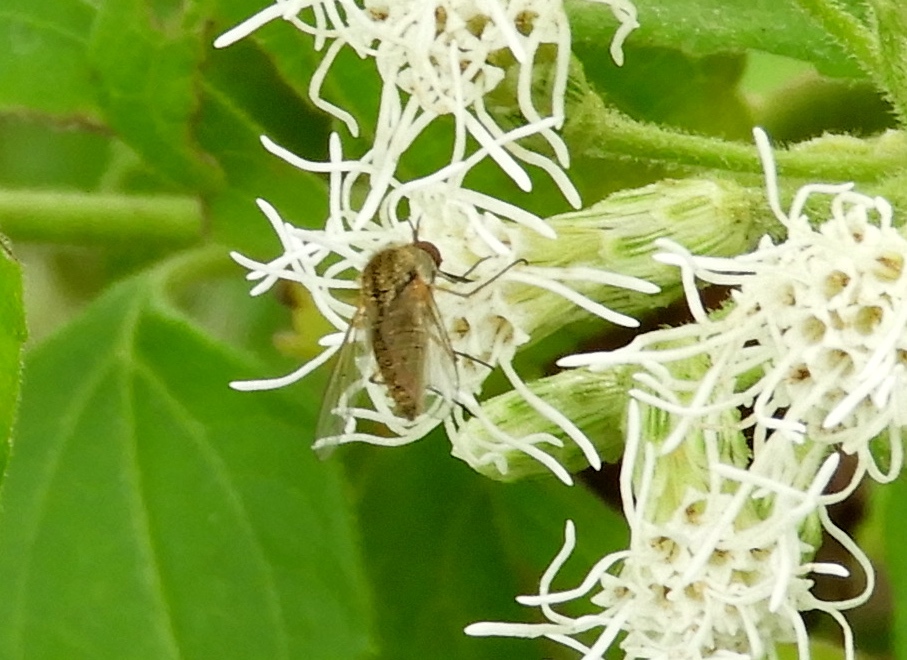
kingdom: Animalia
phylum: Arthropoda
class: Insecta
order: Diptera
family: Bombyliidae
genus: Geron
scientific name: Geron
